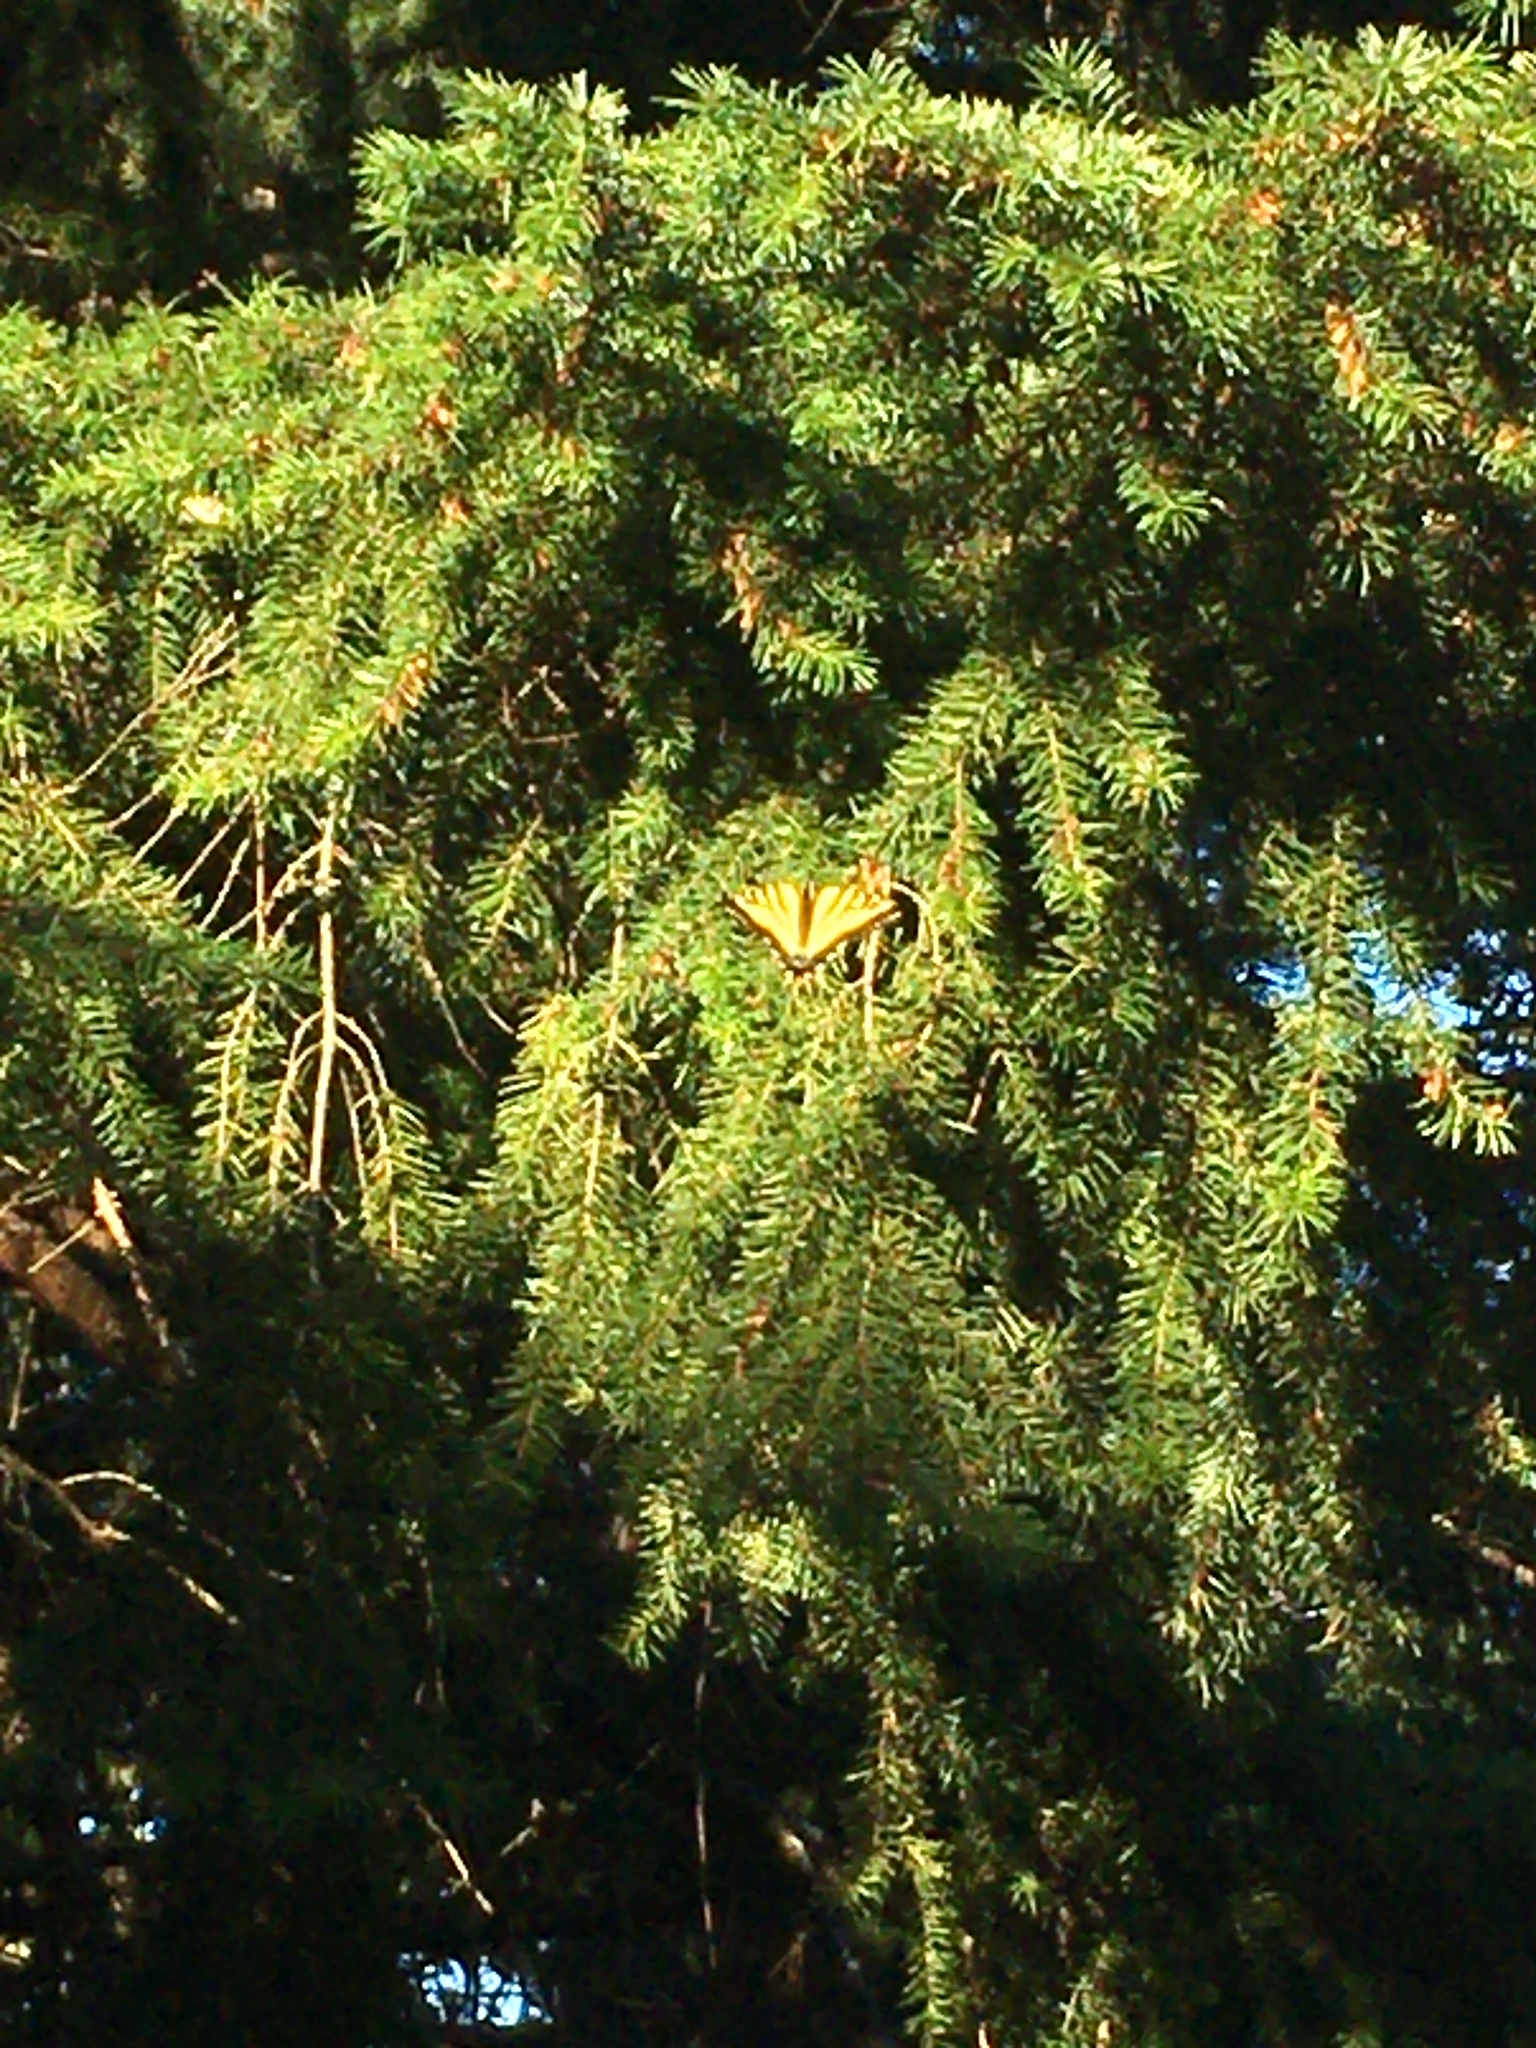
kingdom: Animalia
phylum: Arthropoda
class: Insecta
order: Lepidoptera
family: Papilionidae
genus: Papilio
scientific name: Papilio rutulus
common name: Western tiger swallowtail
